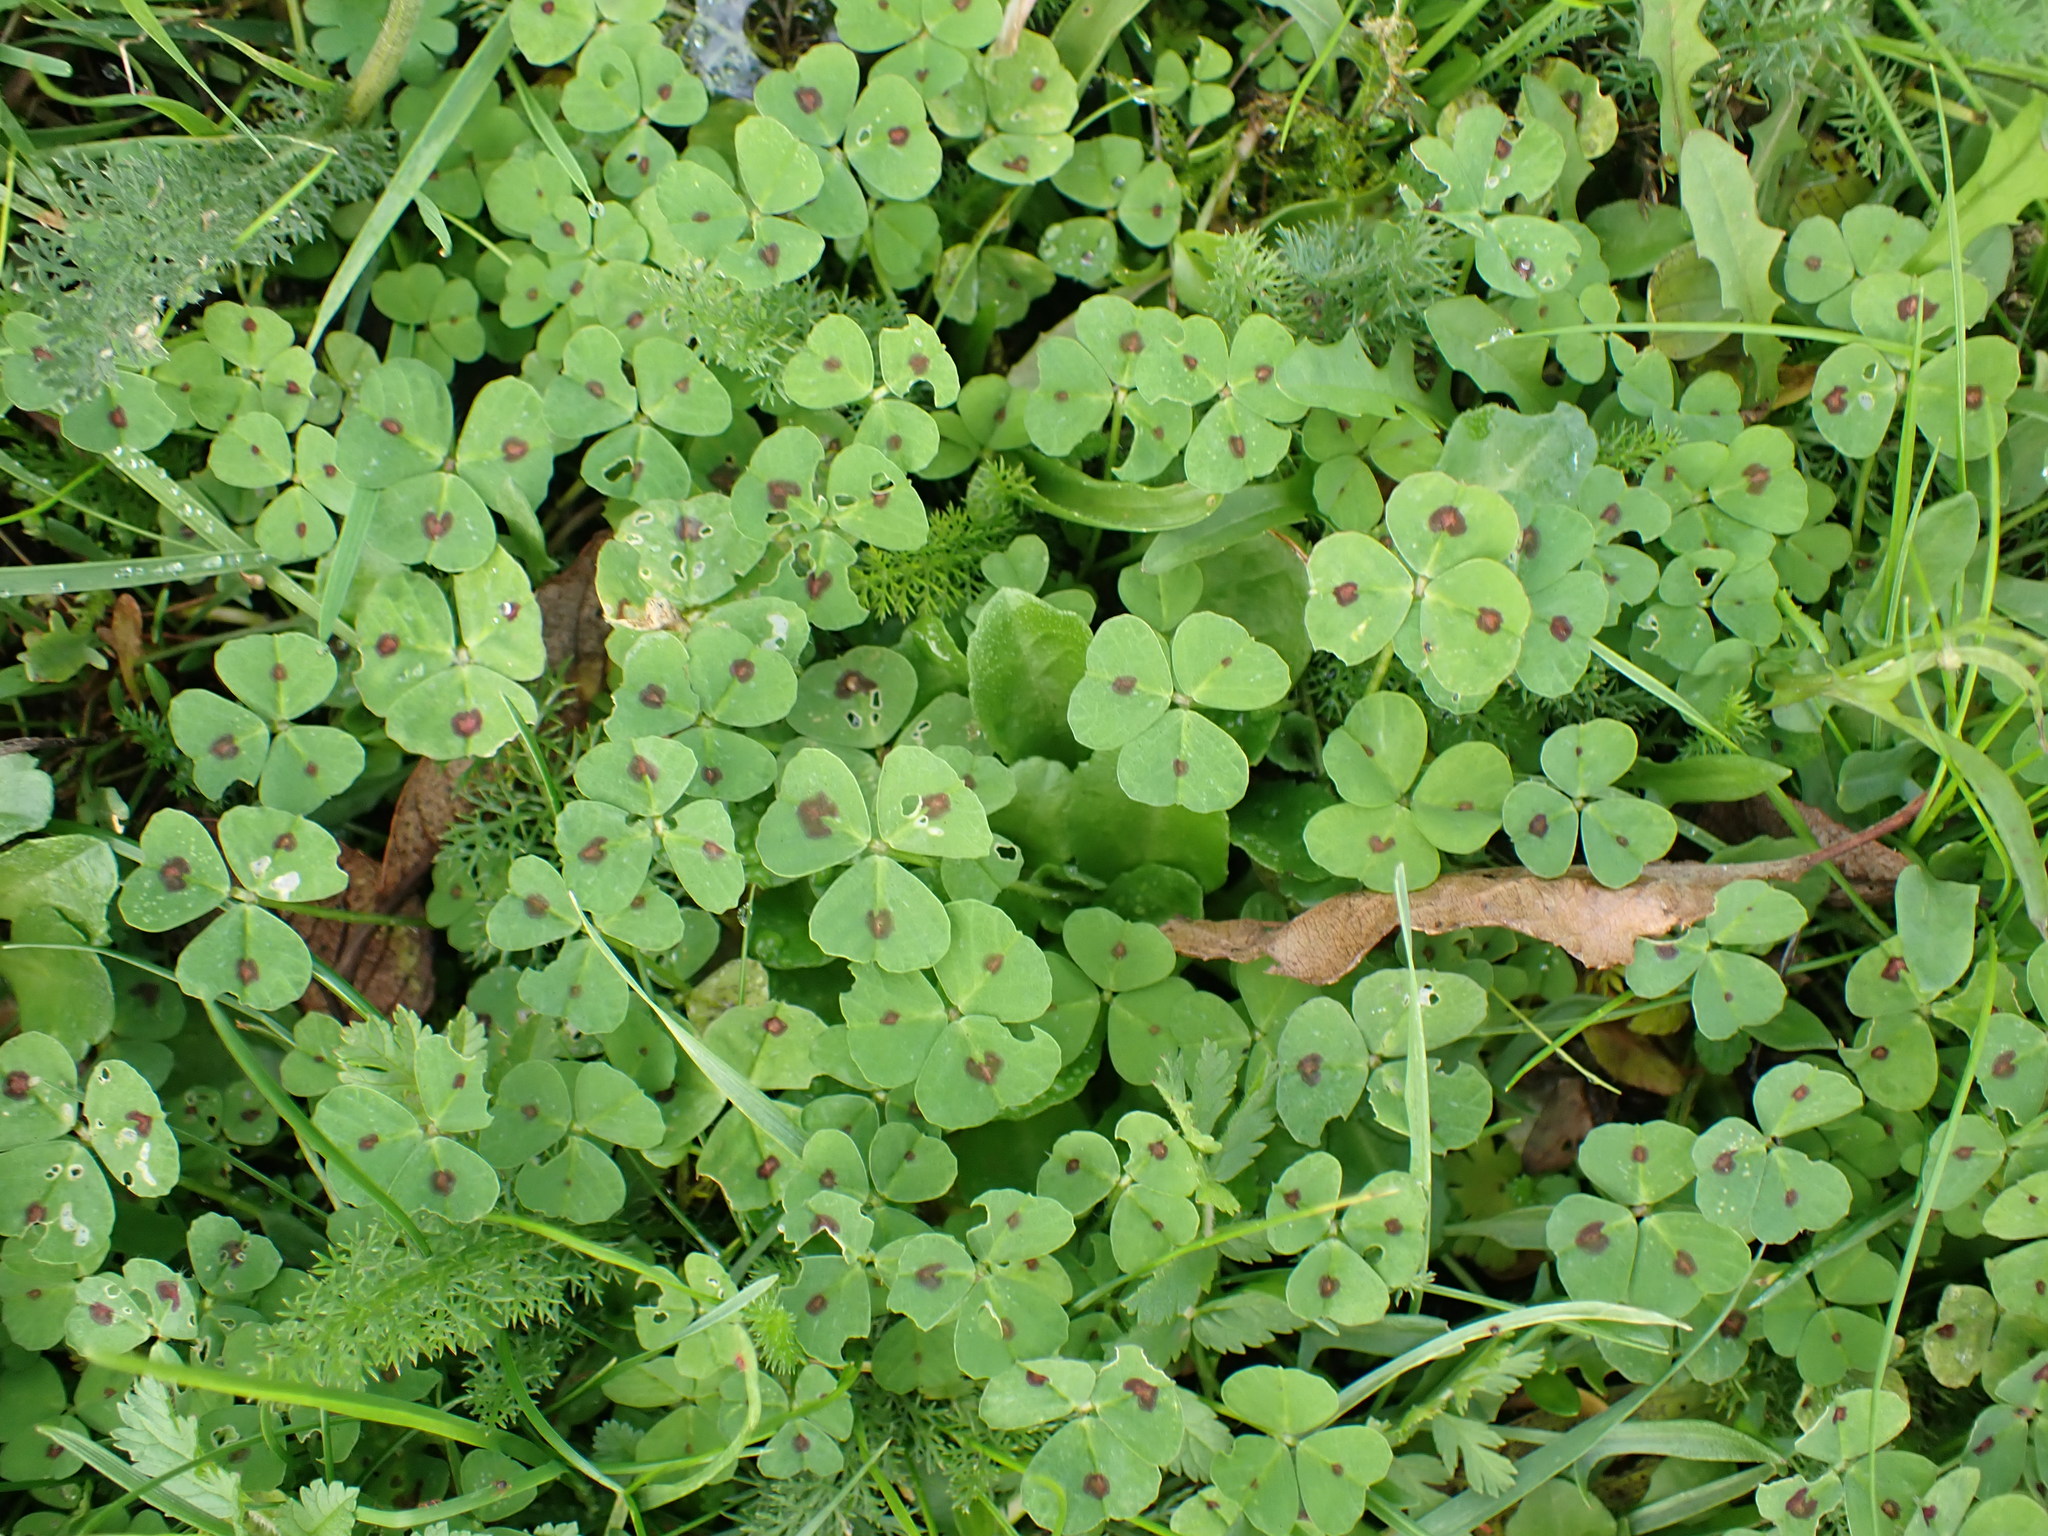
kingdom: Plantae
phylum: Tracheophyta
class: Magnoliopsida
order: Fabales
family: Fabaceae
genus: Medicago
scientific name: Medicago arabica
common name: Spotted medick
